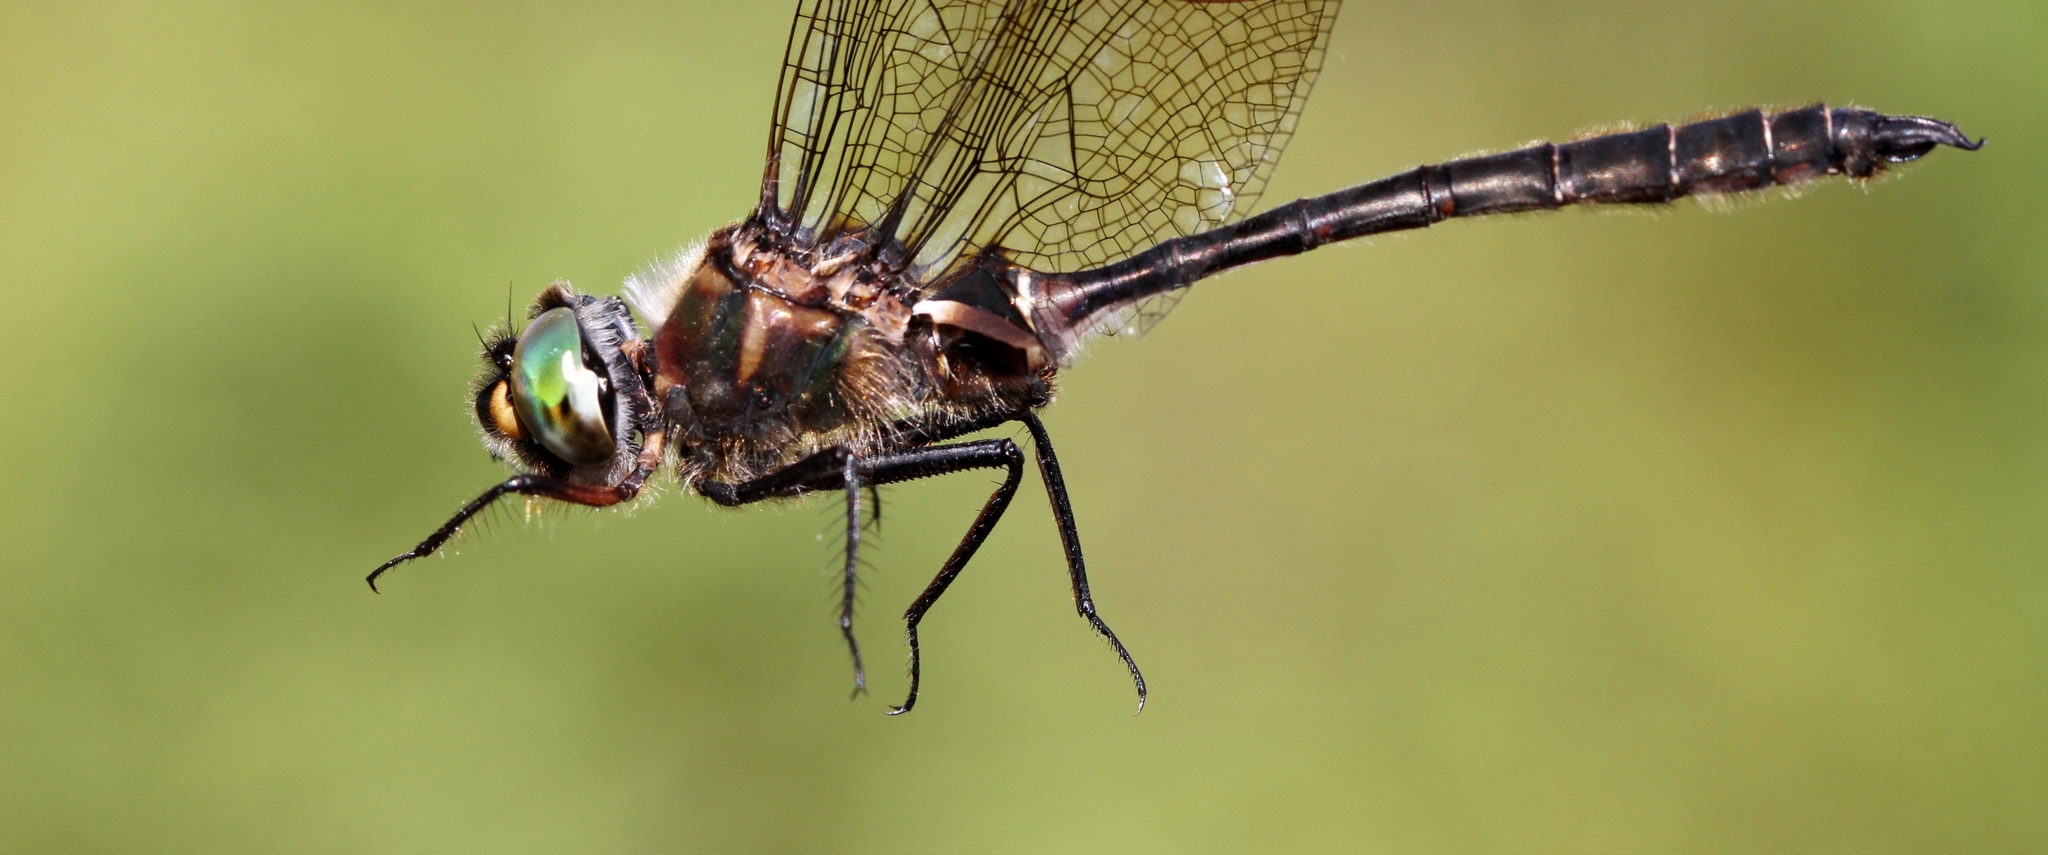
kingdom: Animalia
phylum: Arthropoda
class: Insecta
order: Odonata
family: Corduliidae
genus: Somatochlora
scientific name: Somatochlora septentrionalis
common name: Muskeg emerald
